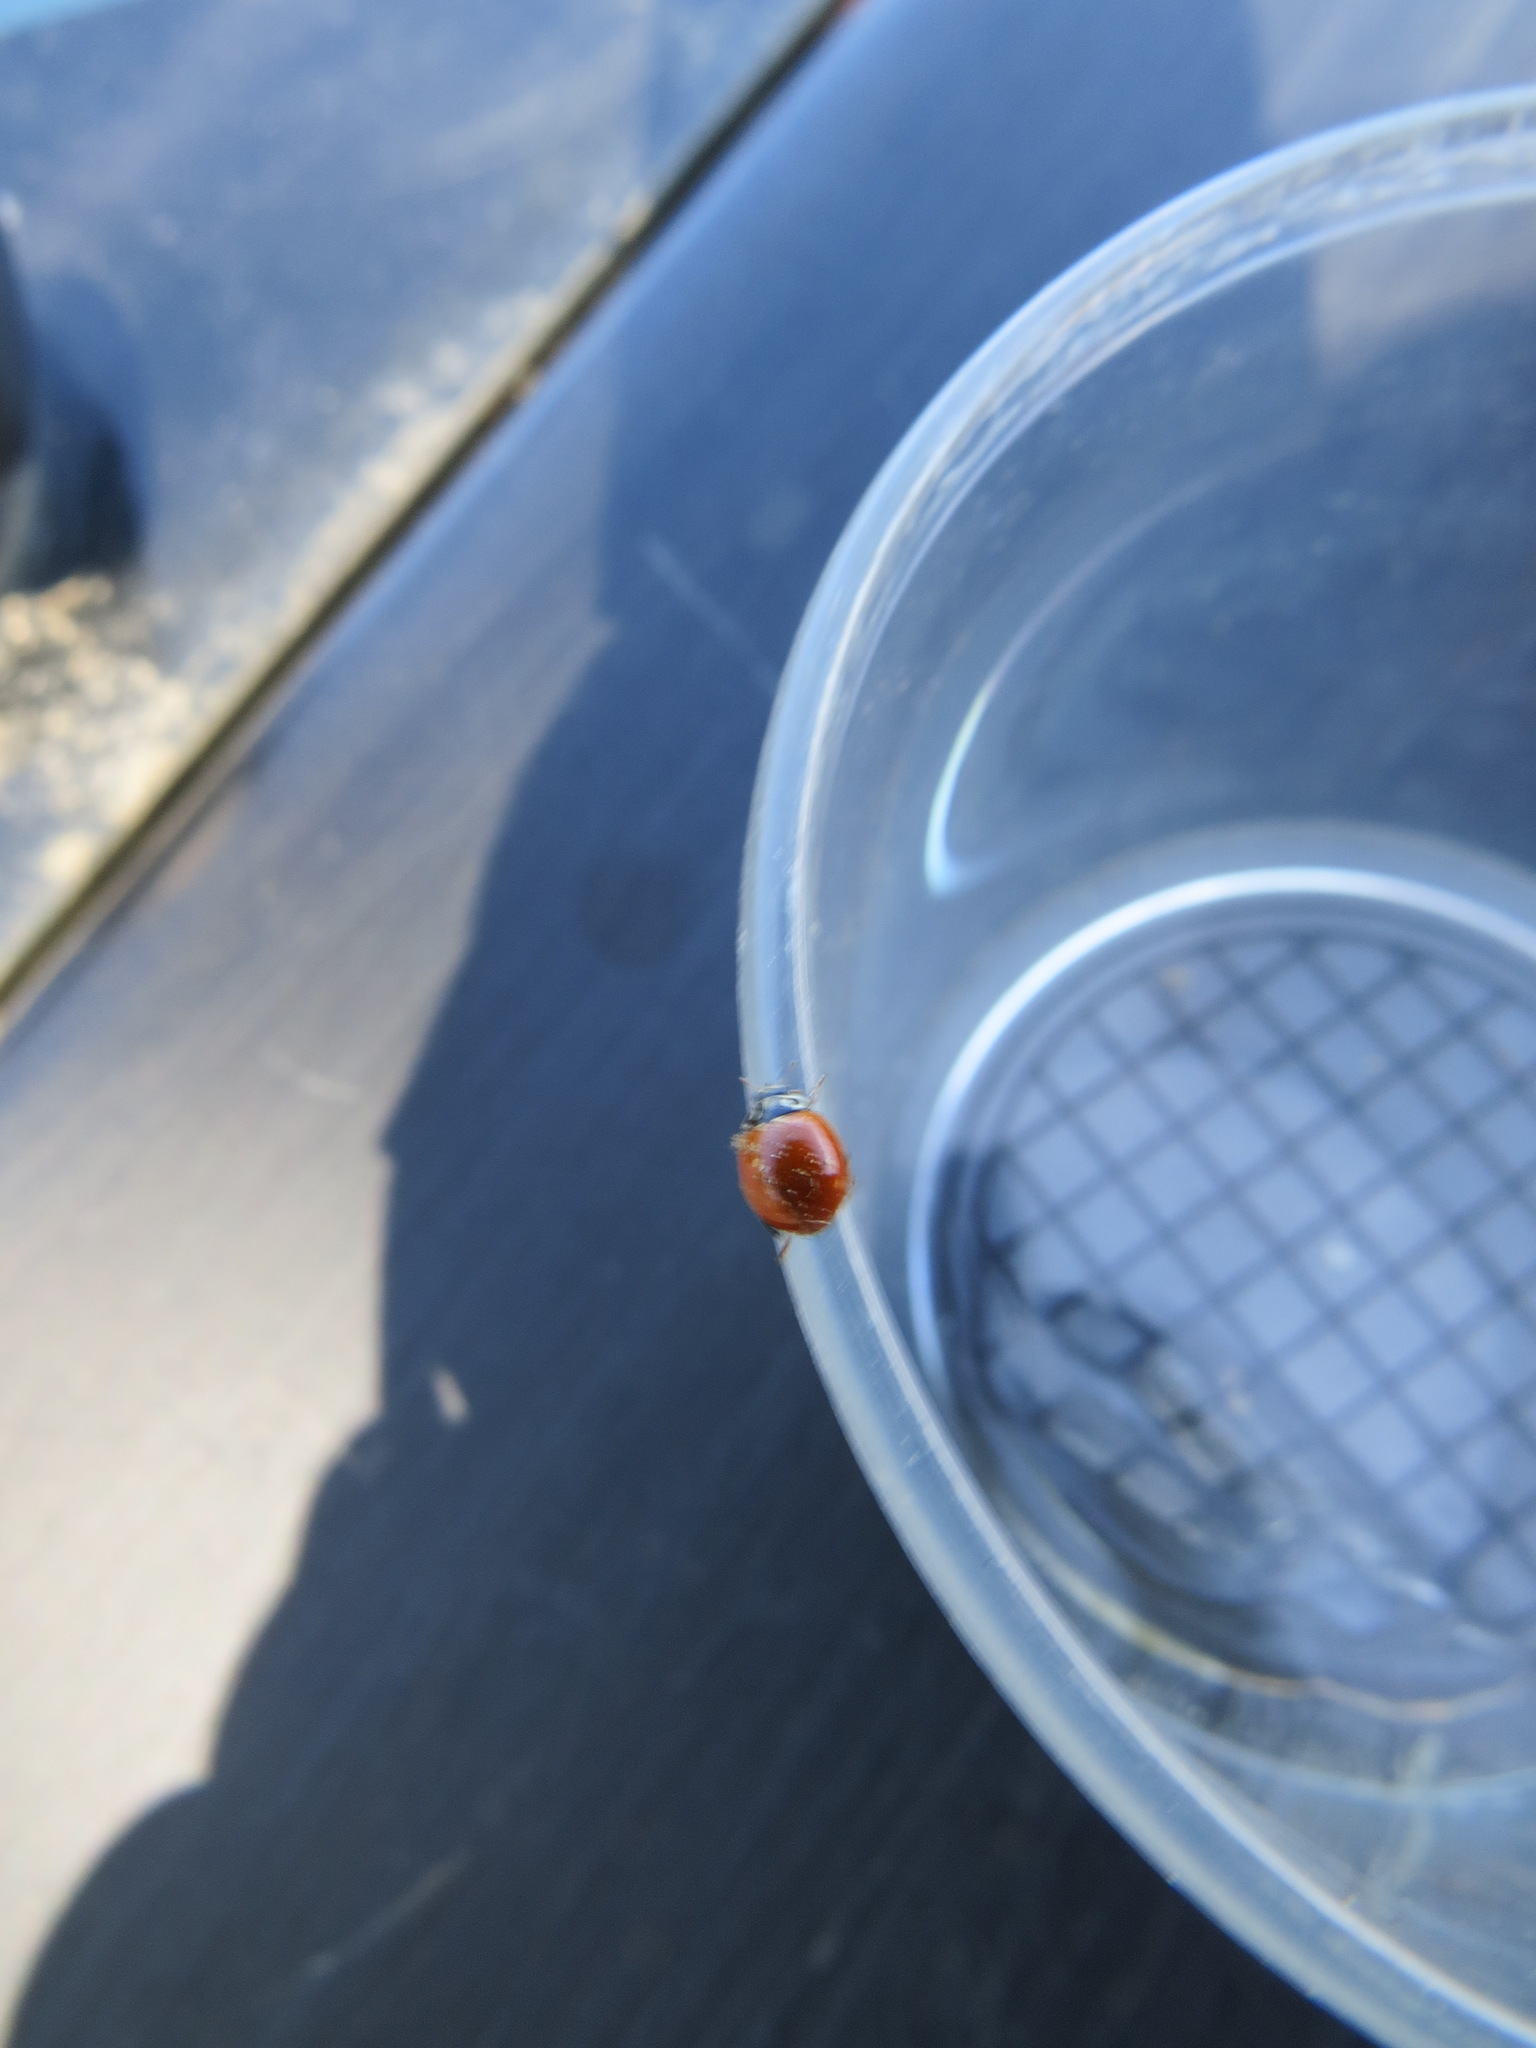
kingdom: Animalia
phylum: Arthropoda
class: Insecta
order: Coleoptera
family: Coccinellidae
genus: Cycloneda
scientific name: Cycloneda polita
